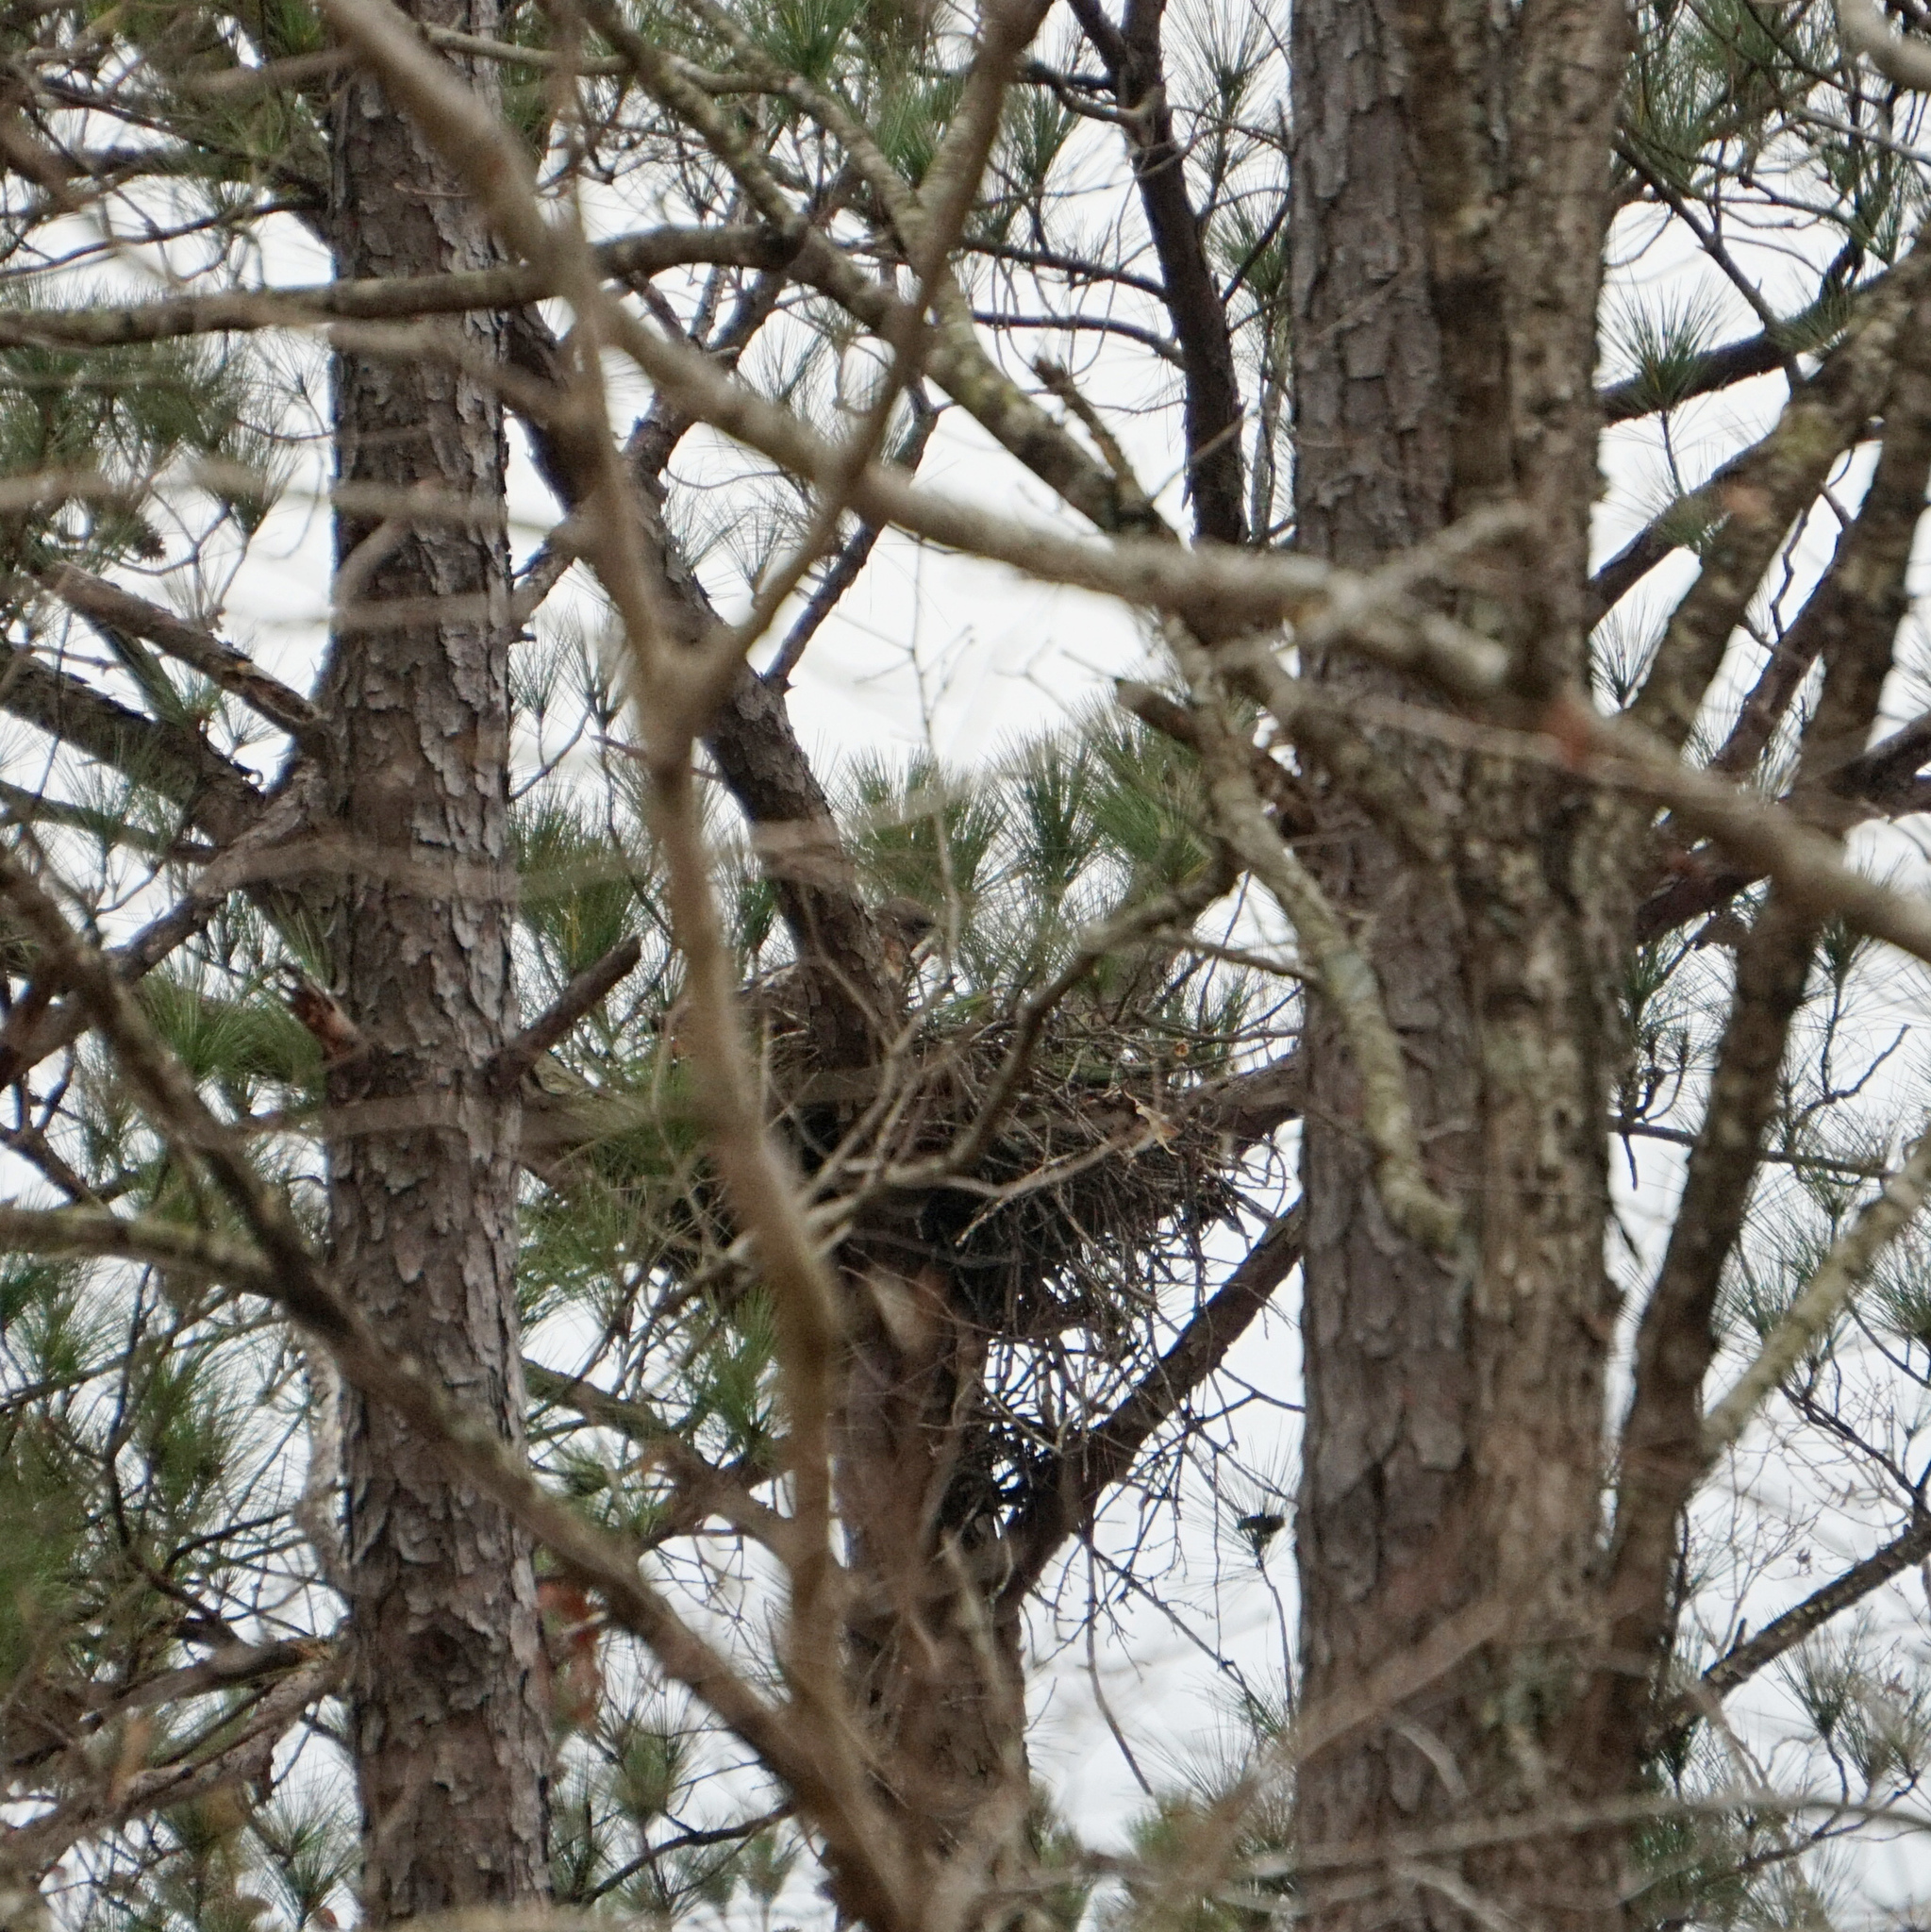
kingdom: Animalia
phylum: Chordata
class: Aves
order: Accipitriformes
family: Accipitridae
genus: Buteo
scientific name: Buteo jamaicensis
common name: Red-tailed hawk
